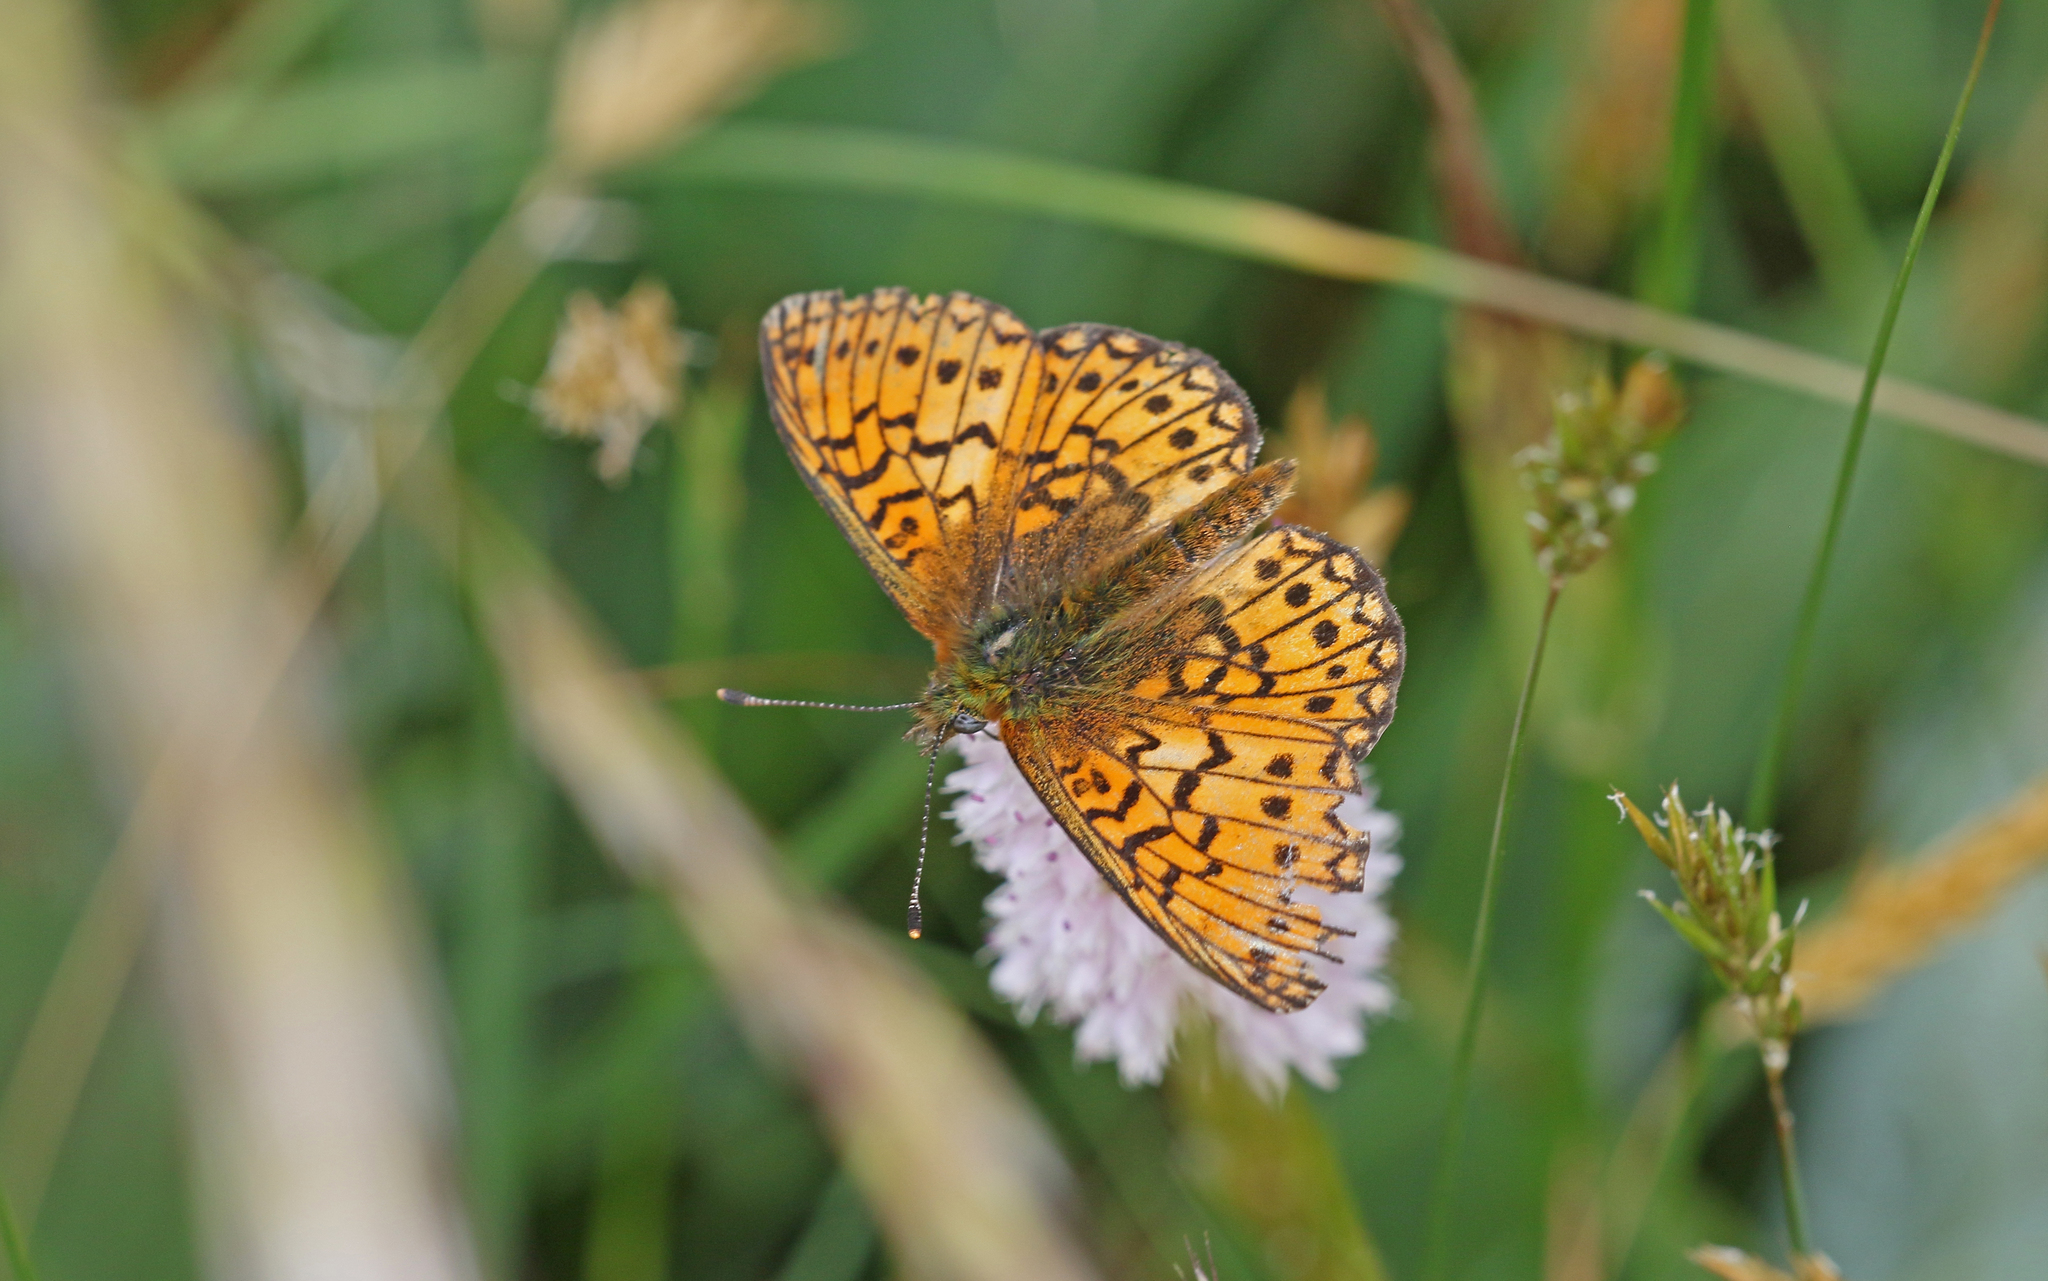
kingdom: Animalia
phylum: Arthropoda
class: Insecta
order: Lepidoptera
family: Nymphalidae
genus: Boloria
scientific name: Boloria eunomia
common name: Bog fritillary
